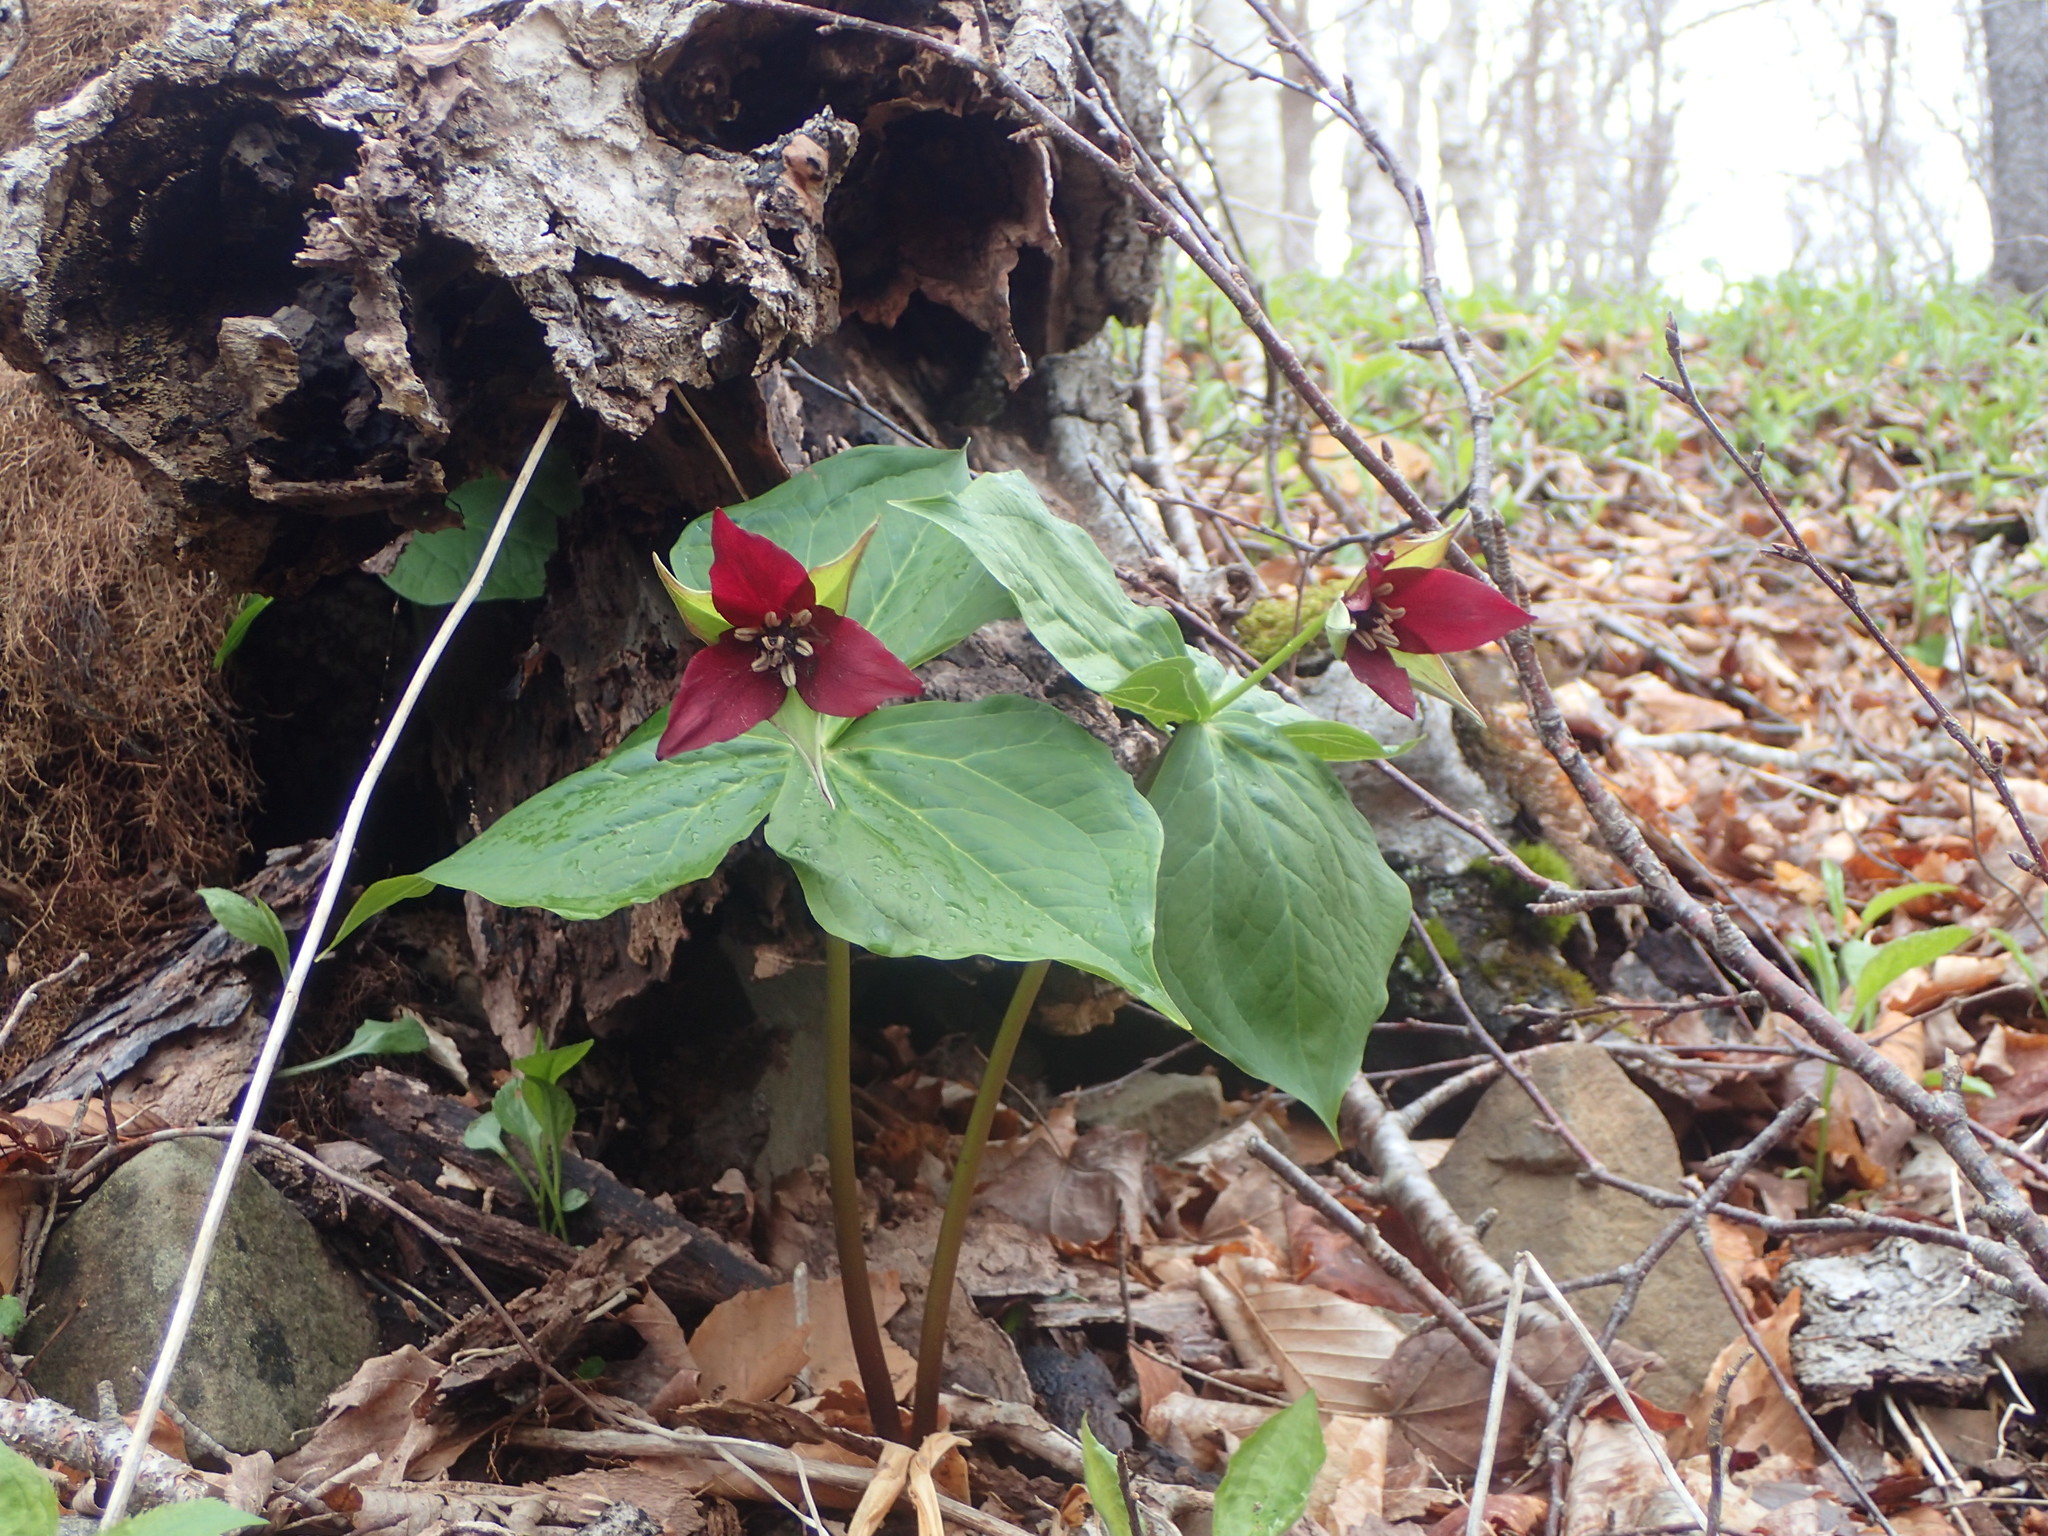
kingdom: Plantae
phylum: Tracheophyta
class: Liliopsida
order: Liliales
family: Melanthiaceae
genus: Trillium
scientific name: Trillium erectum
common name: Purple trillium
